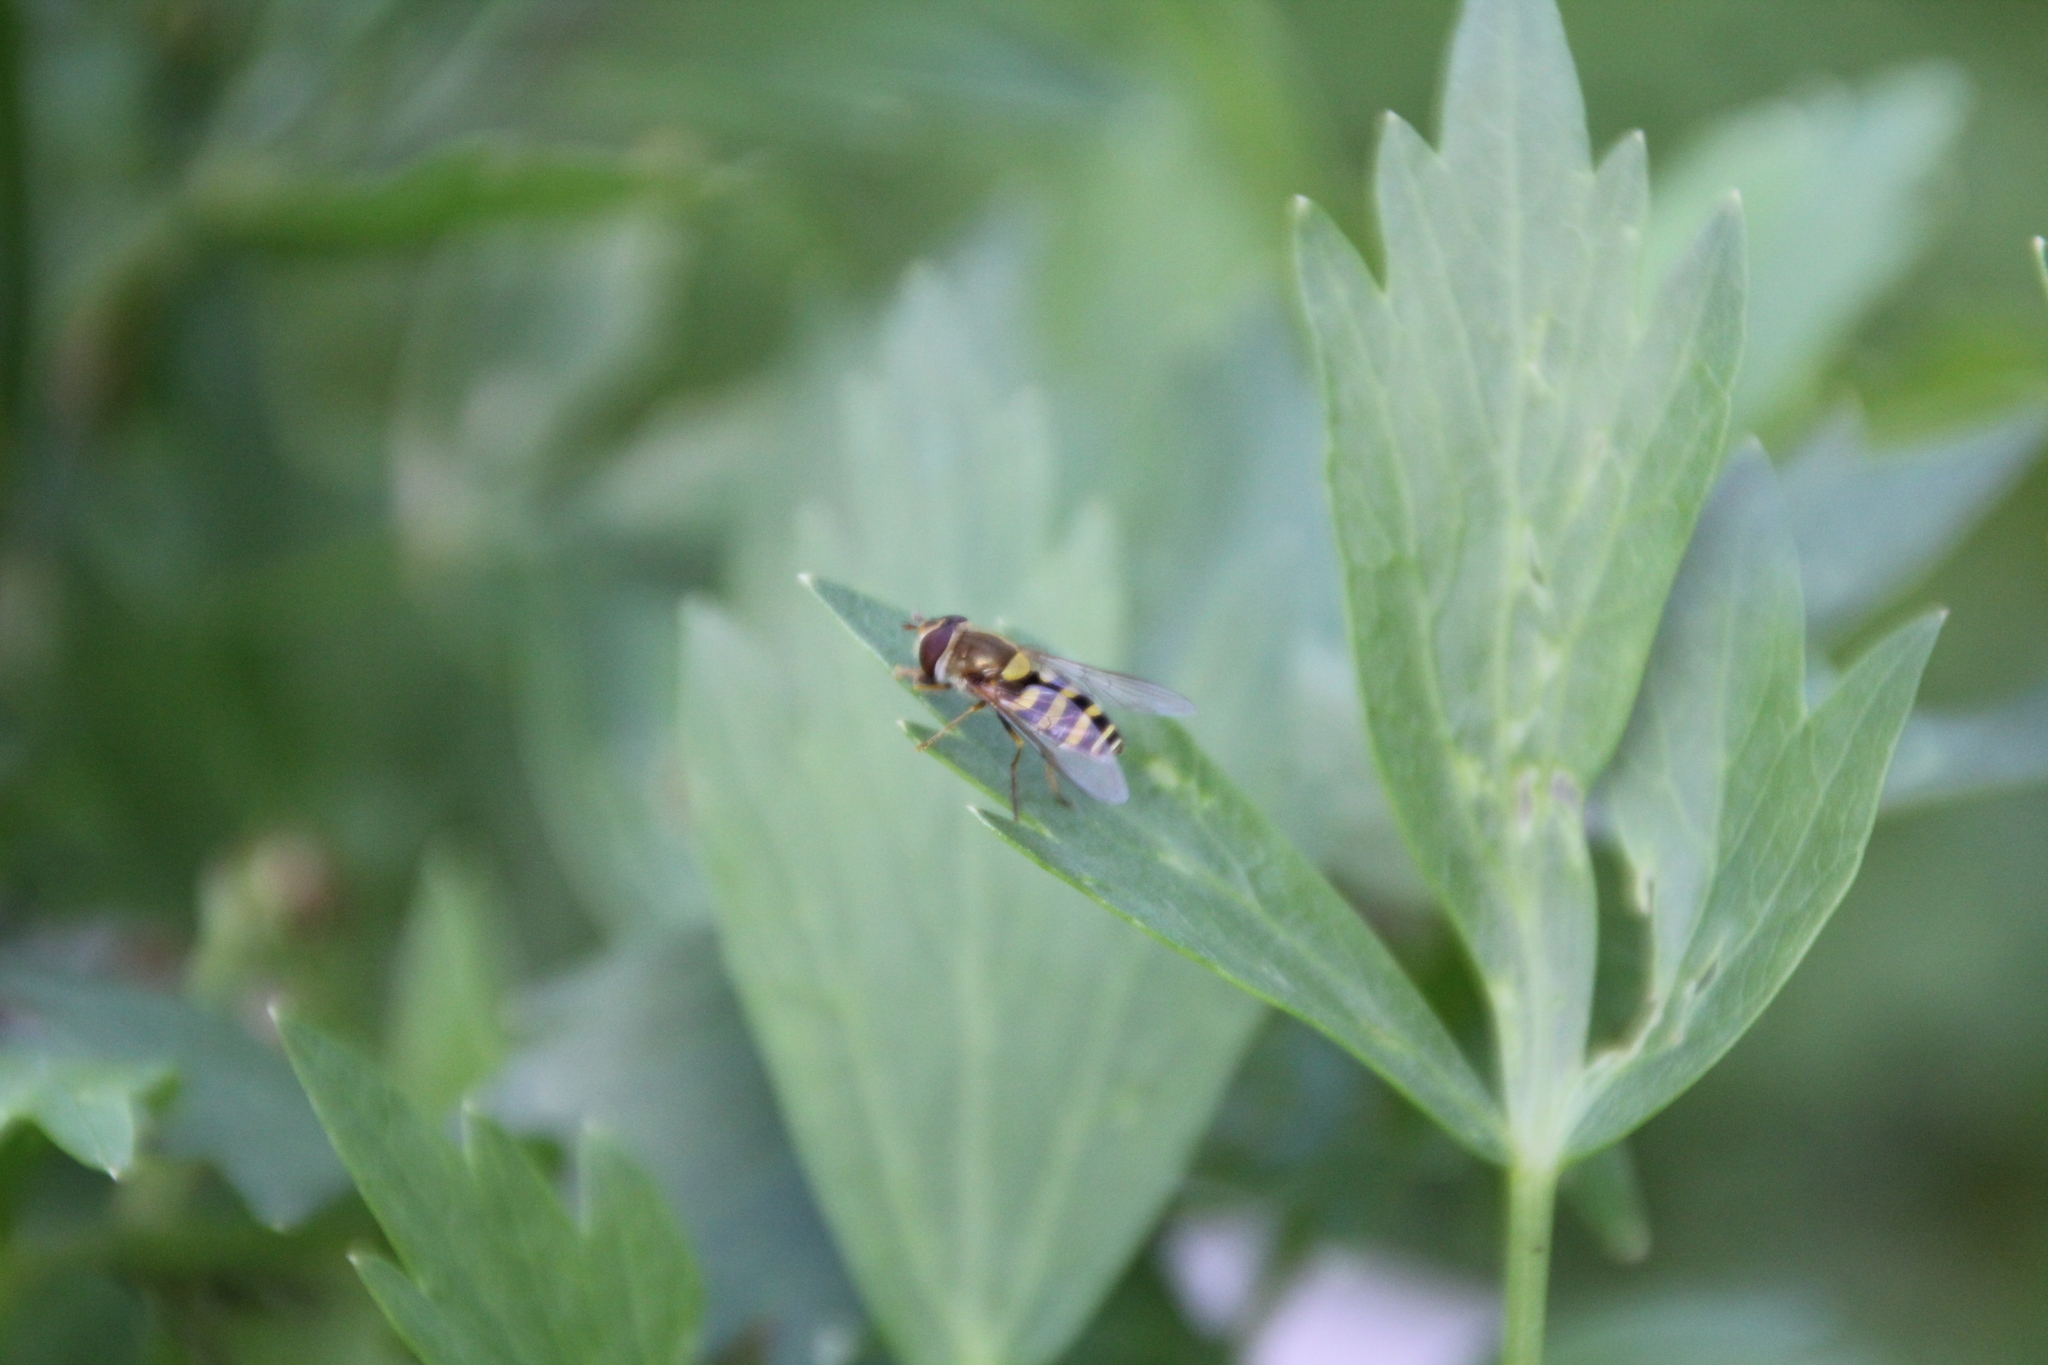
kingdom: Animalia
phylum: Arthropoda
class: Insecta
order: Diptera
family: Syrphidae
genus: Syrphus
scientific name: Syrphus torvus
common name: Hairy-eyed flower fly
